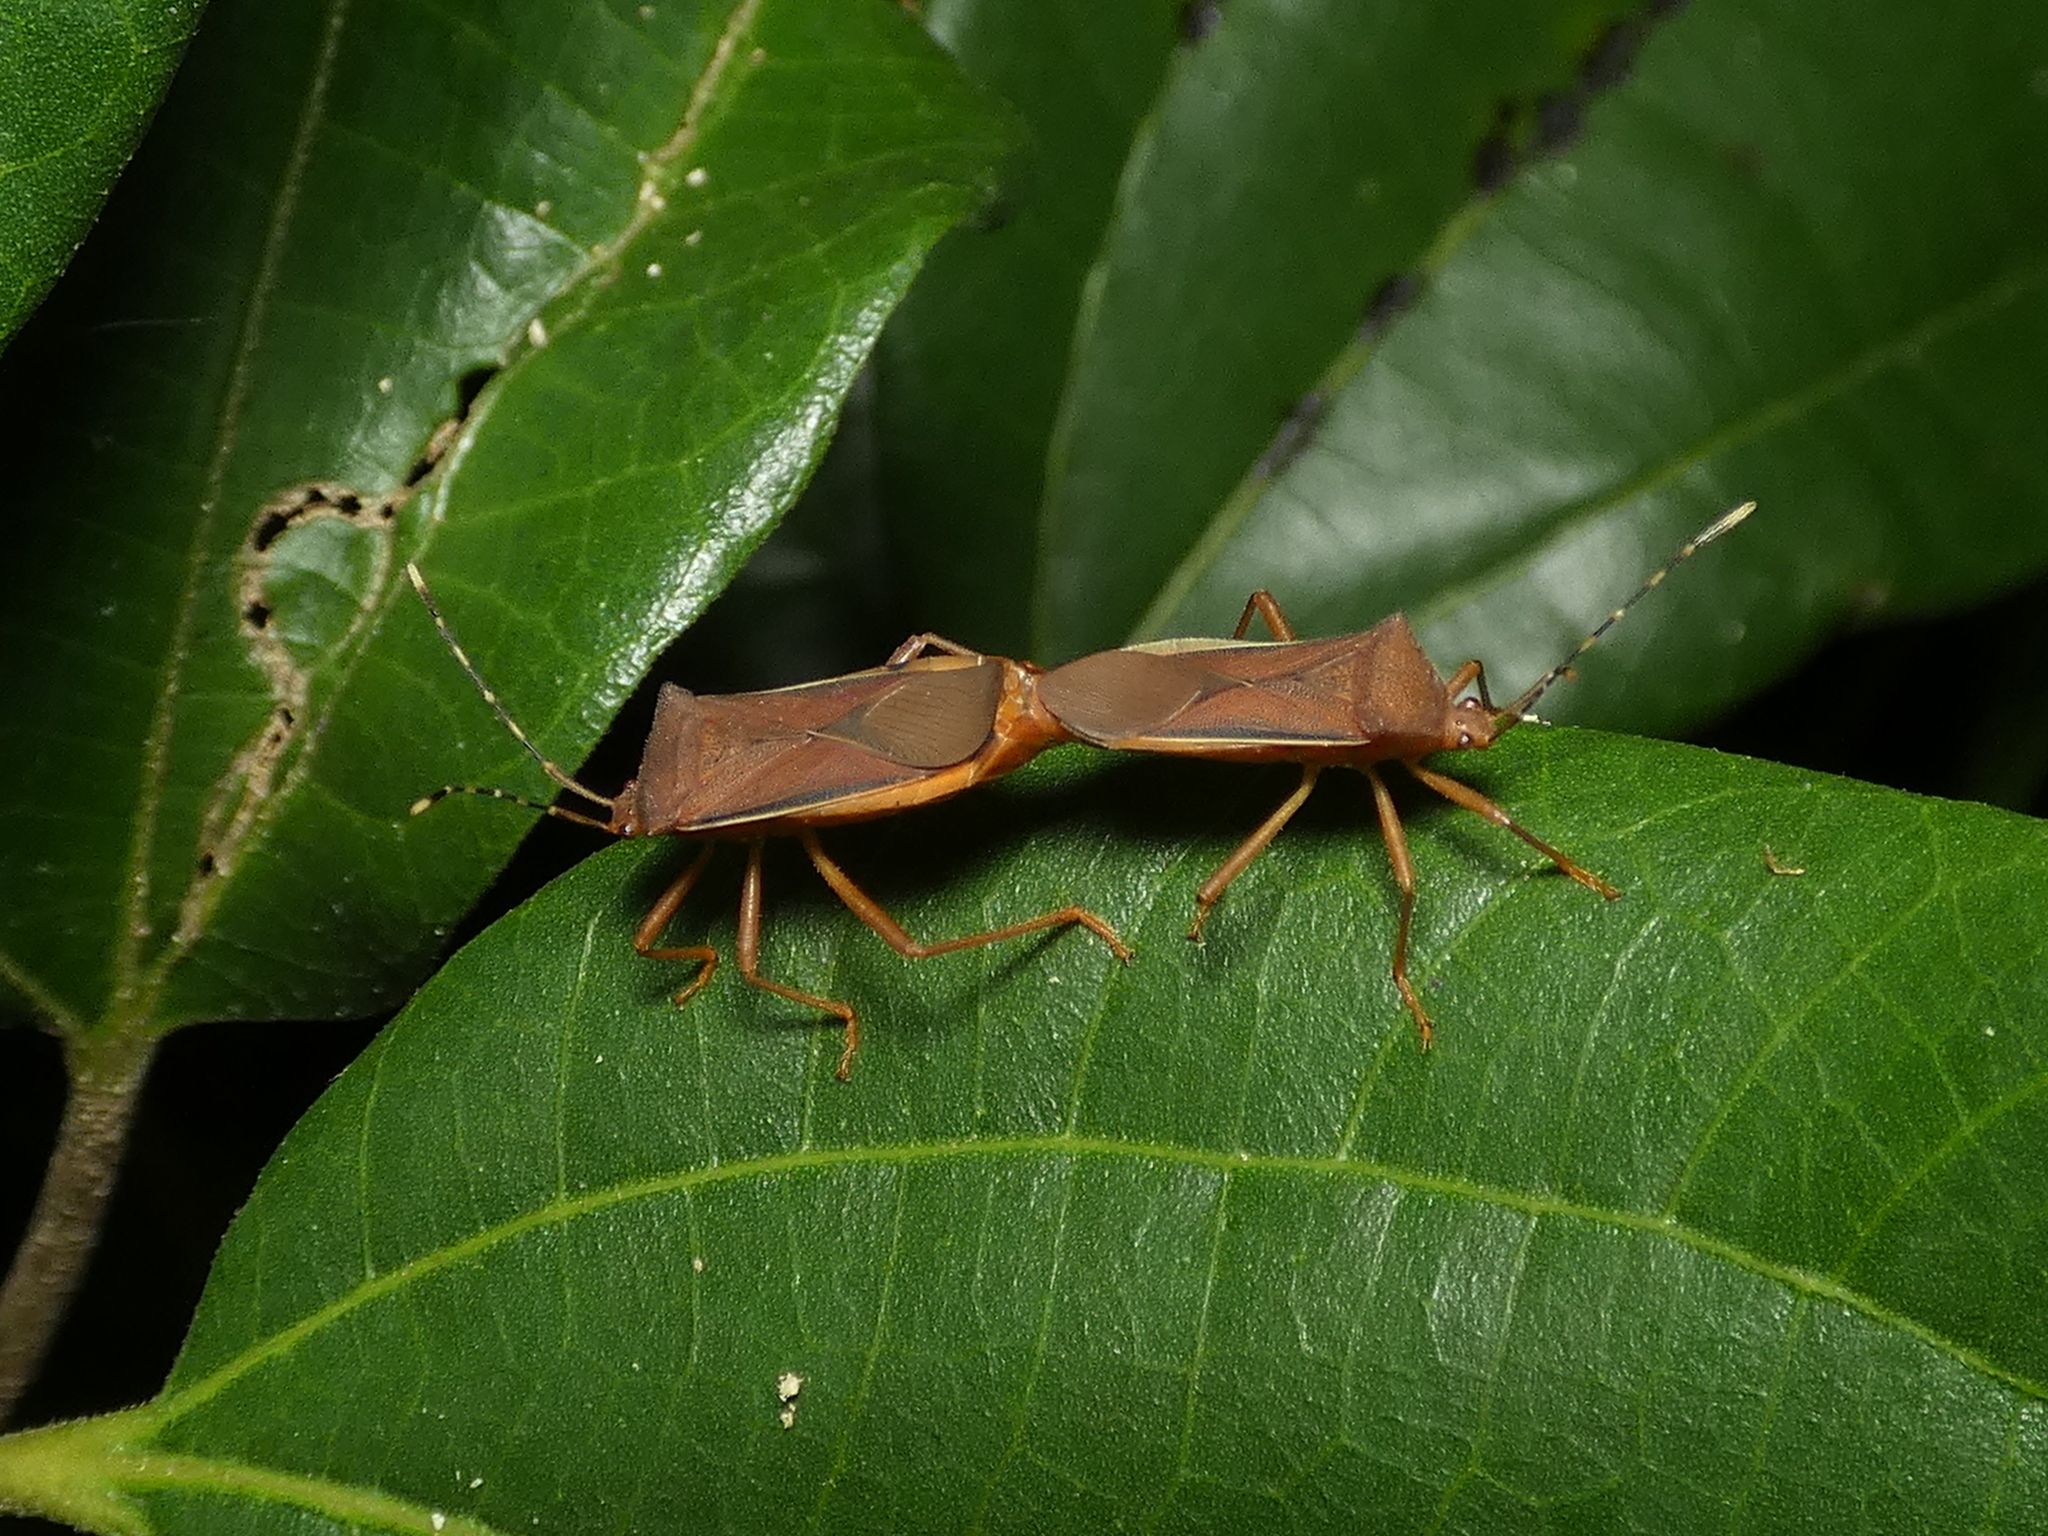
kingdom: Animalia
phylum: Arthropoda
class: Insecta
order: Hemiptera
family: Coreidae
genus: Anasa
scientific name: Anasa varicornis
